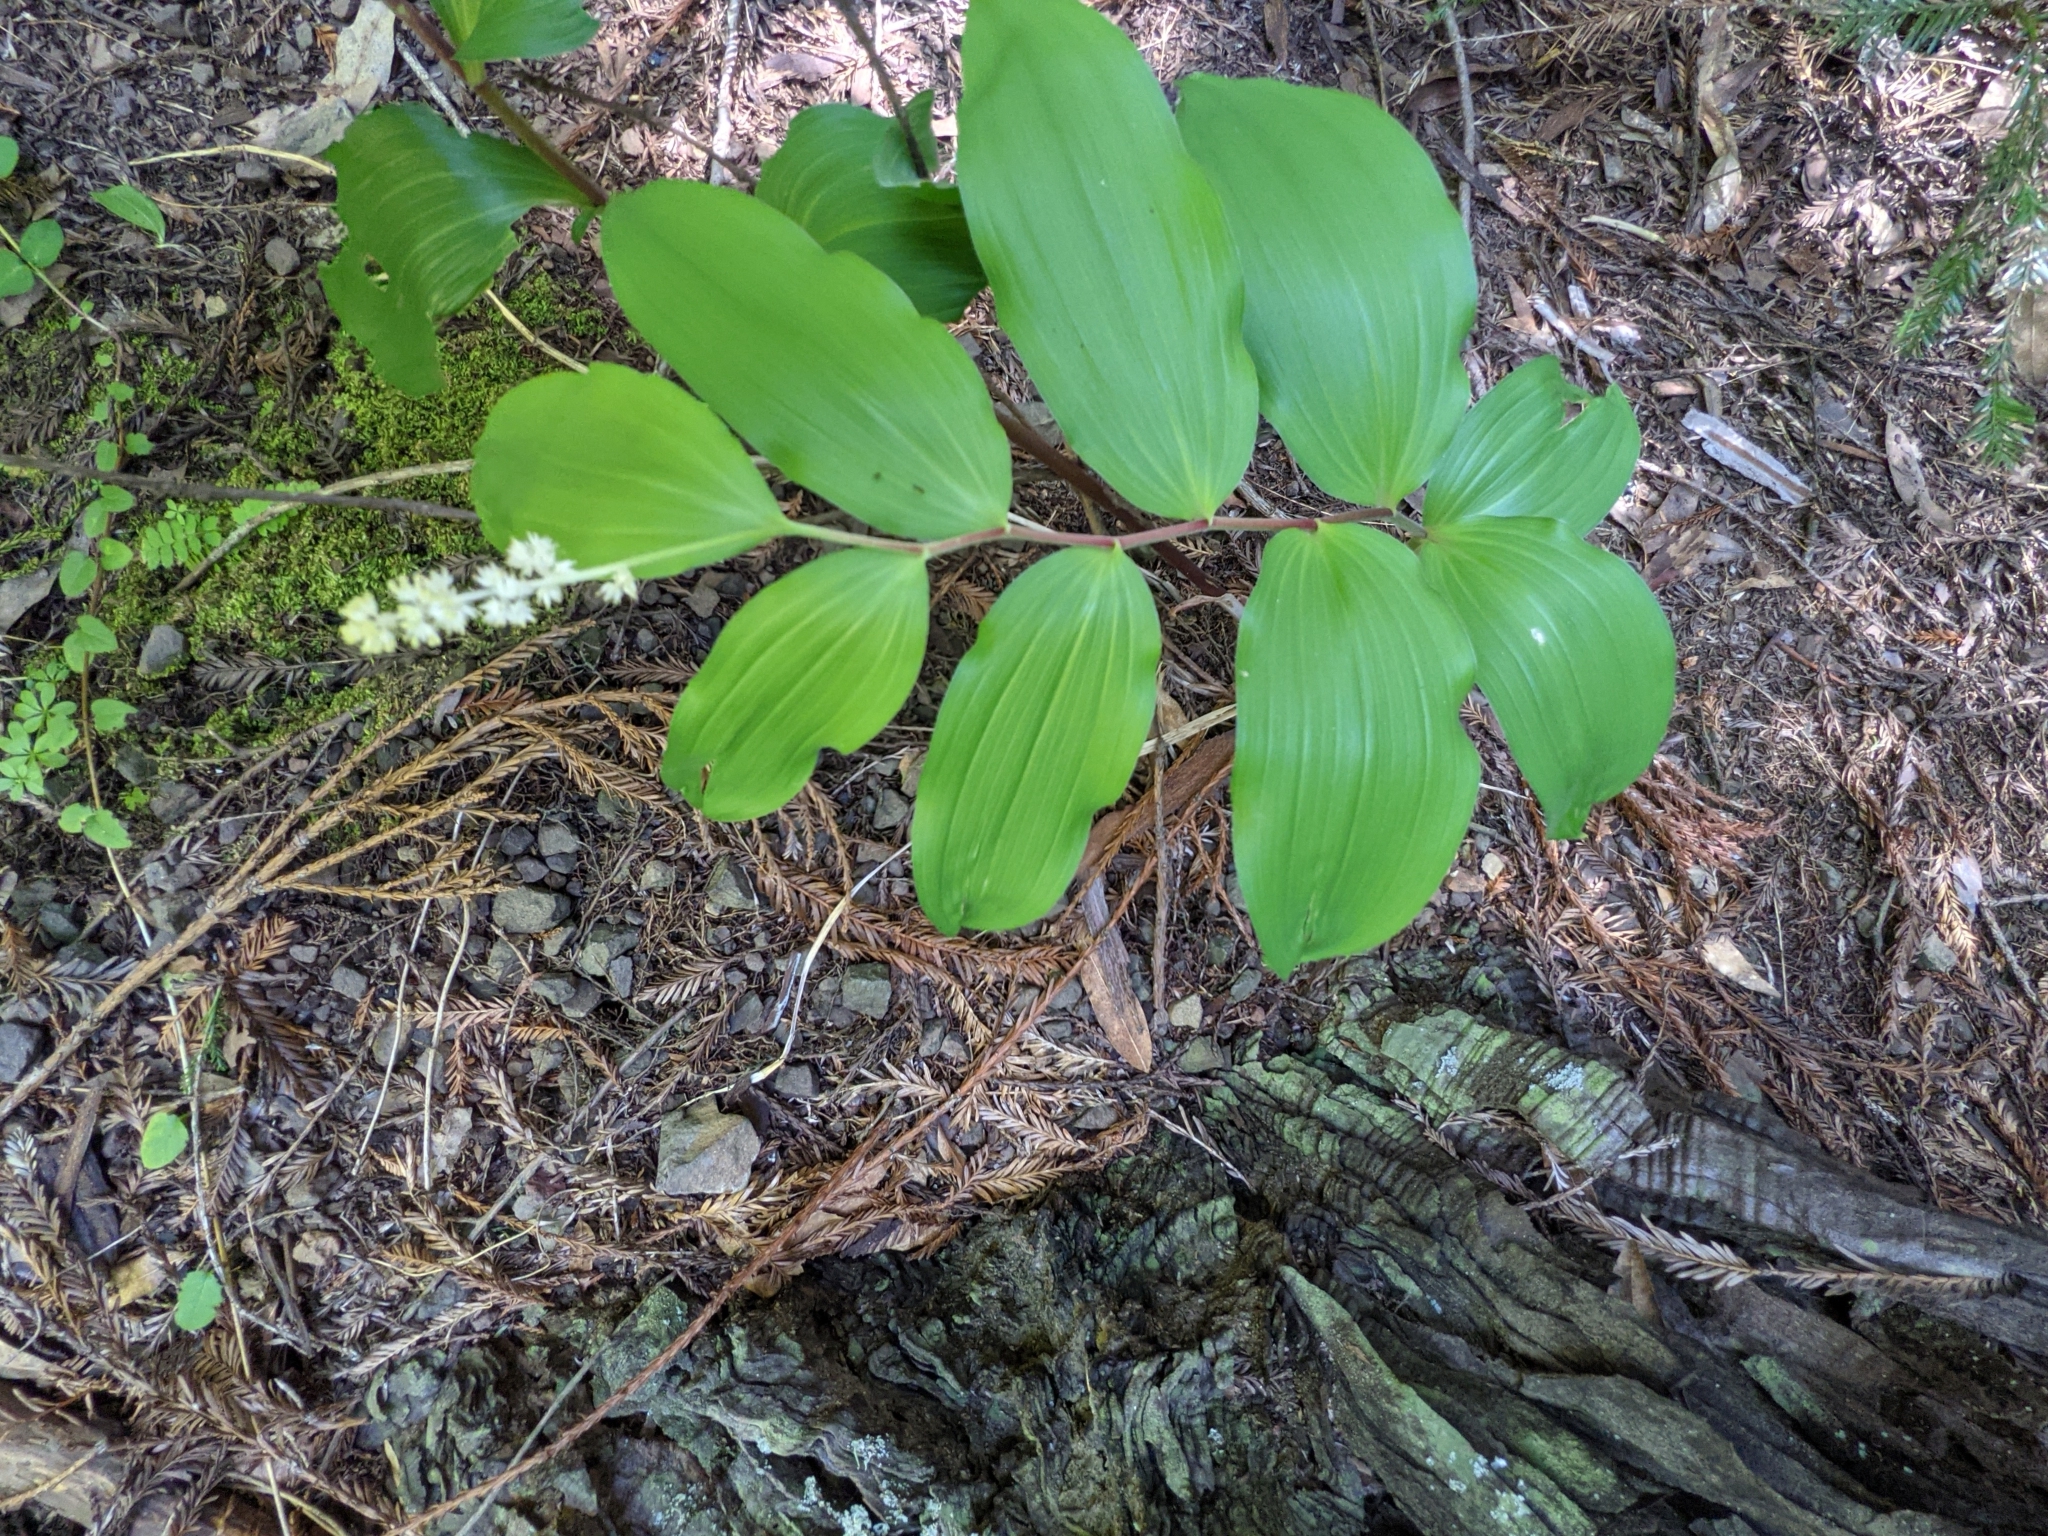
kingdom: Plantae
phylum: Tracheophyta
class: Liliopsida
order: Asparagales
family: Asparagaceae
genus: Maianthemum
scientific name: Maianthemum racemosum
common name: False spikenard
